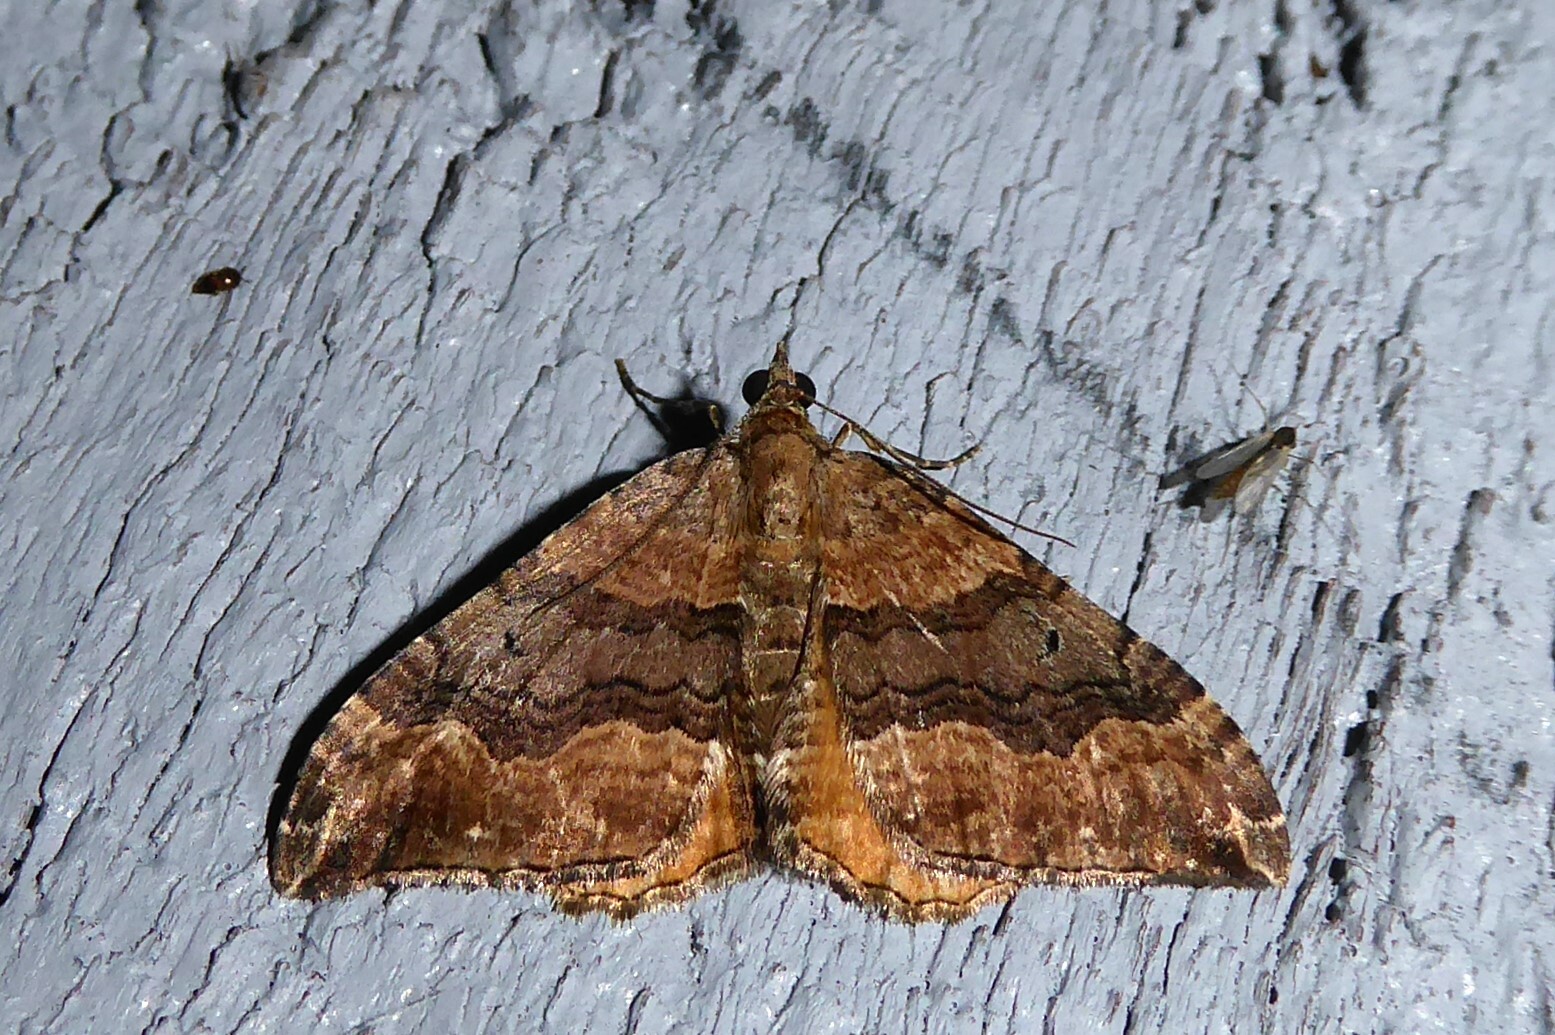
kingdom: Animalia
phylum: Arthropoda
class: Insecta
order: Lepidoptera
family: Geometridae
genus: Hydriomena
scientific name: Hydriomena deltoidata
